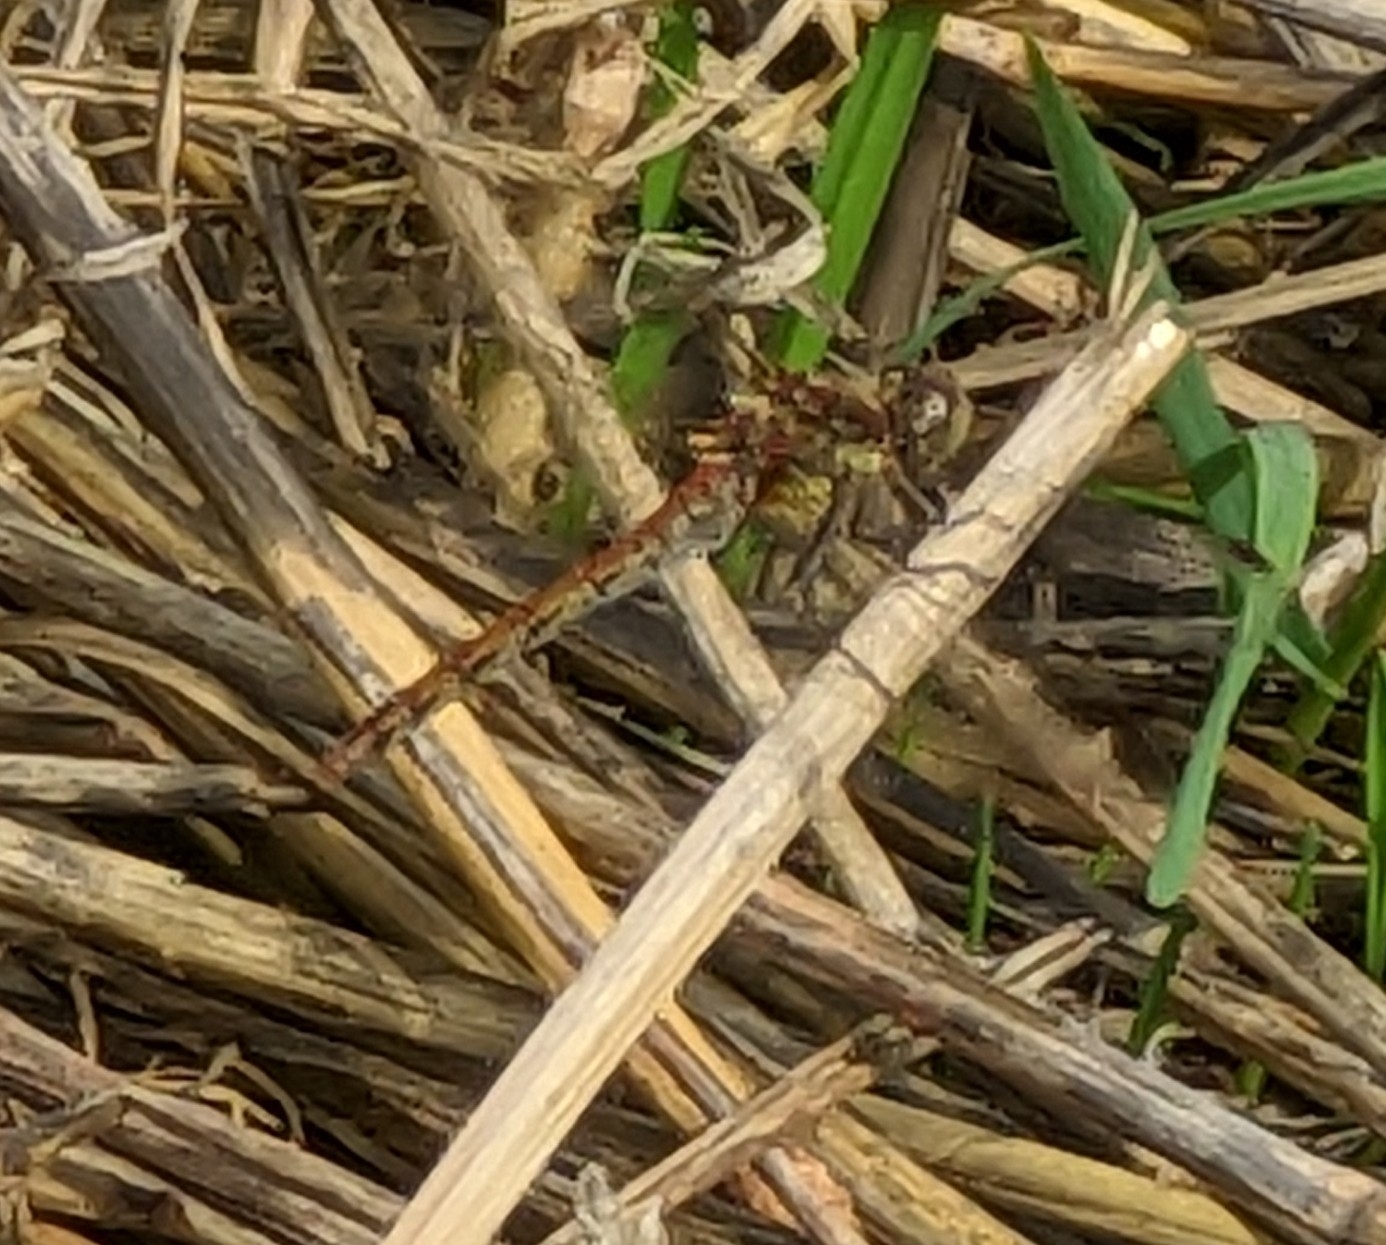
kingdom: Animalia
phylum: Arthropoda
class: Insecta
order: Odonata
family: Libellulidae
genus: Sympetrum
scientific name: Sympetrum striolatum
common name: Common darter
